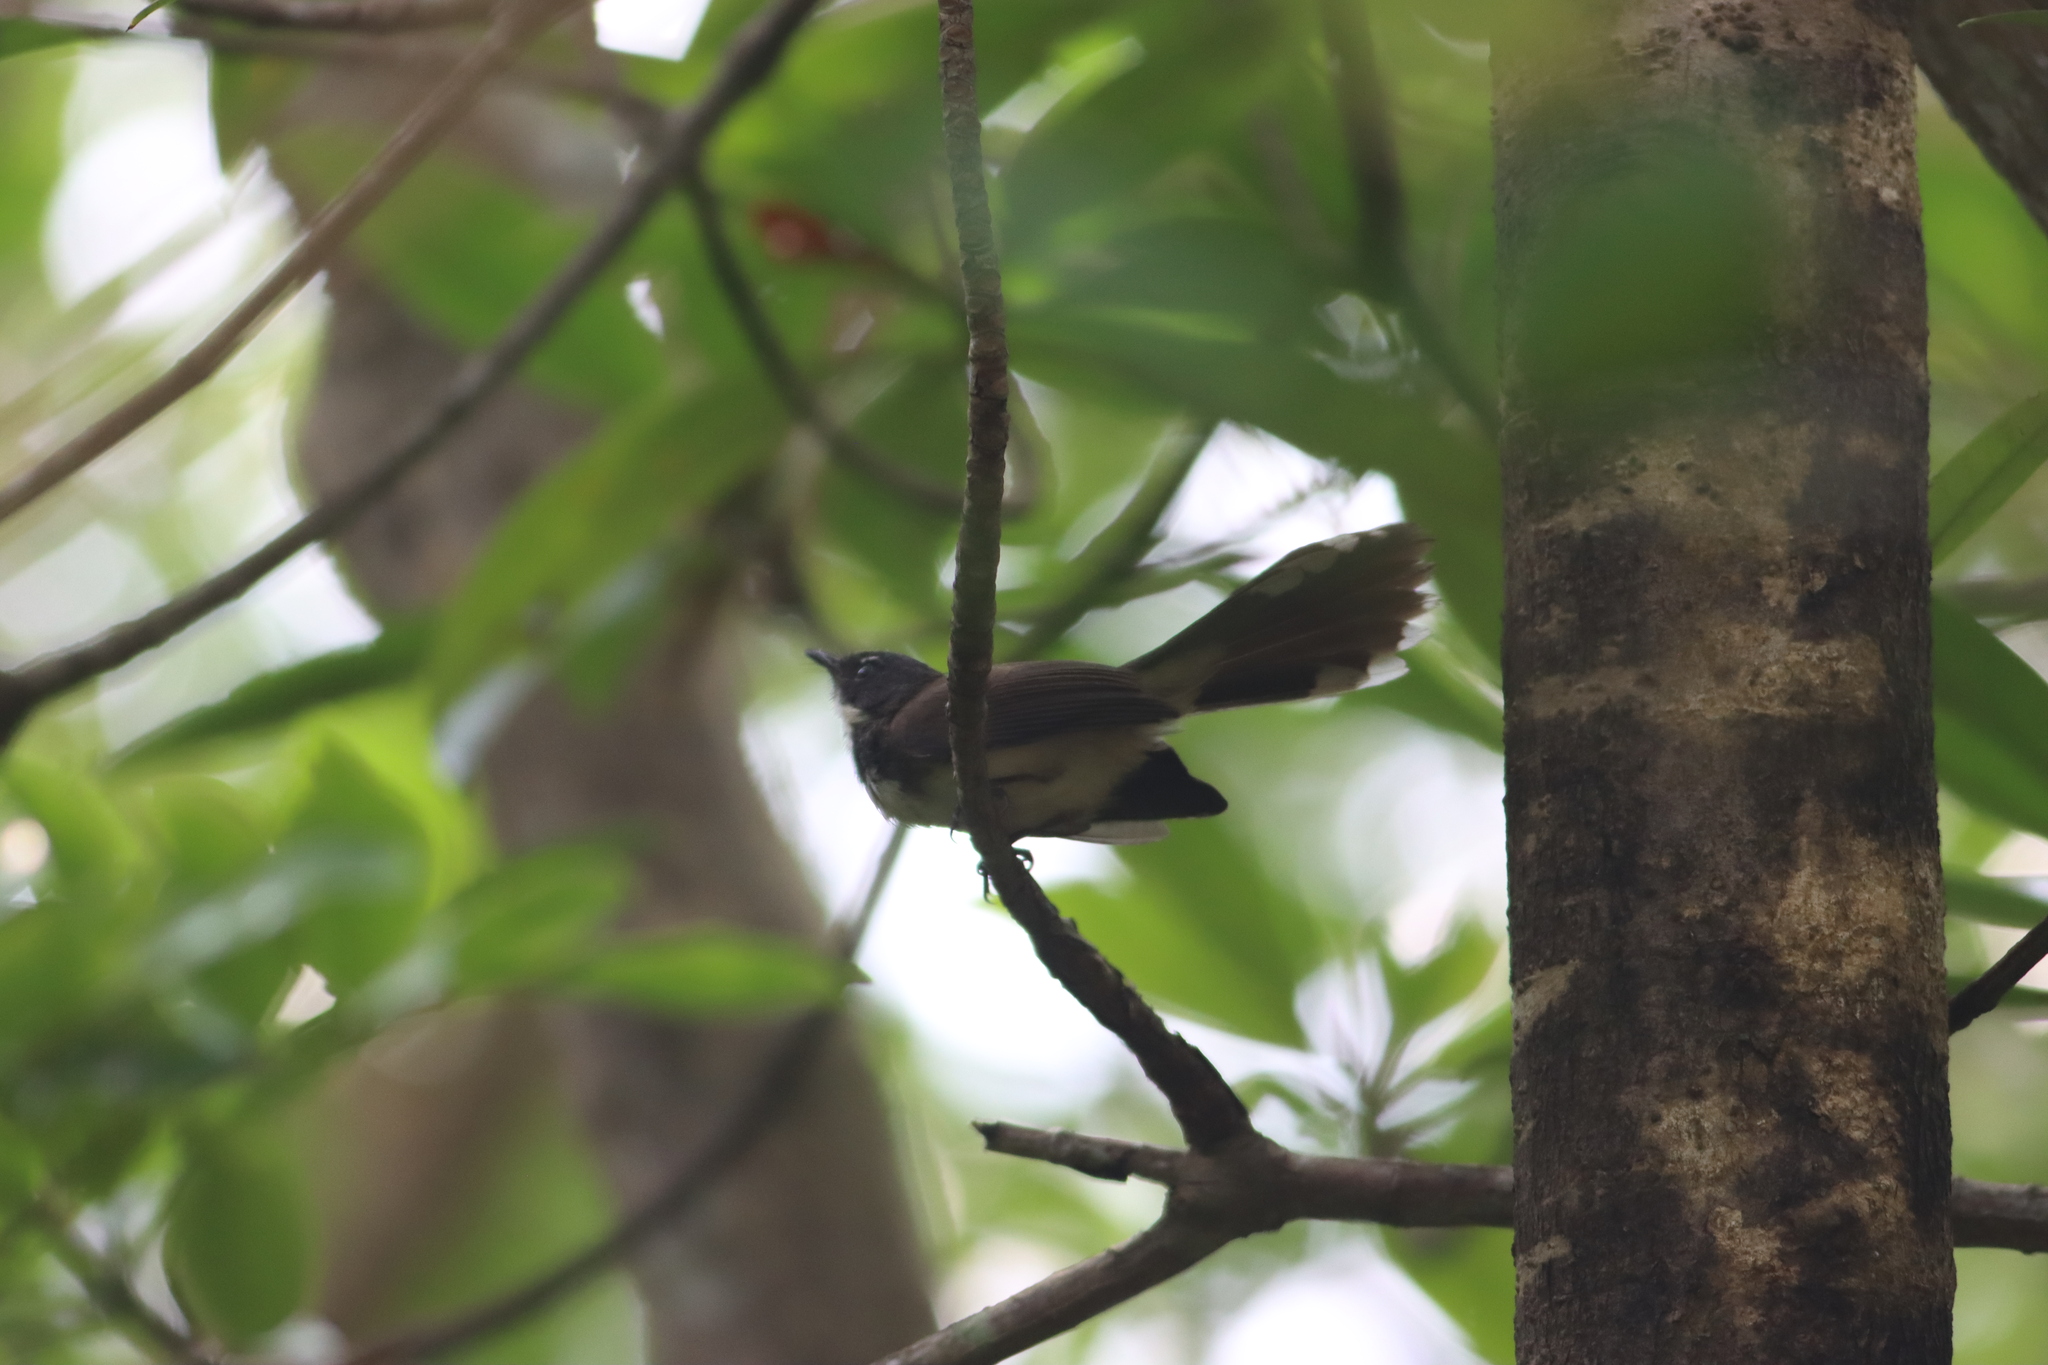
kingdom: Animalia
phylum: Chordata
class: Aves
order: Passeriformes
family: Rhipiduridae
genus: Rhipidura
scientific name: Rhipidura javanica
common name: Pied fantail
